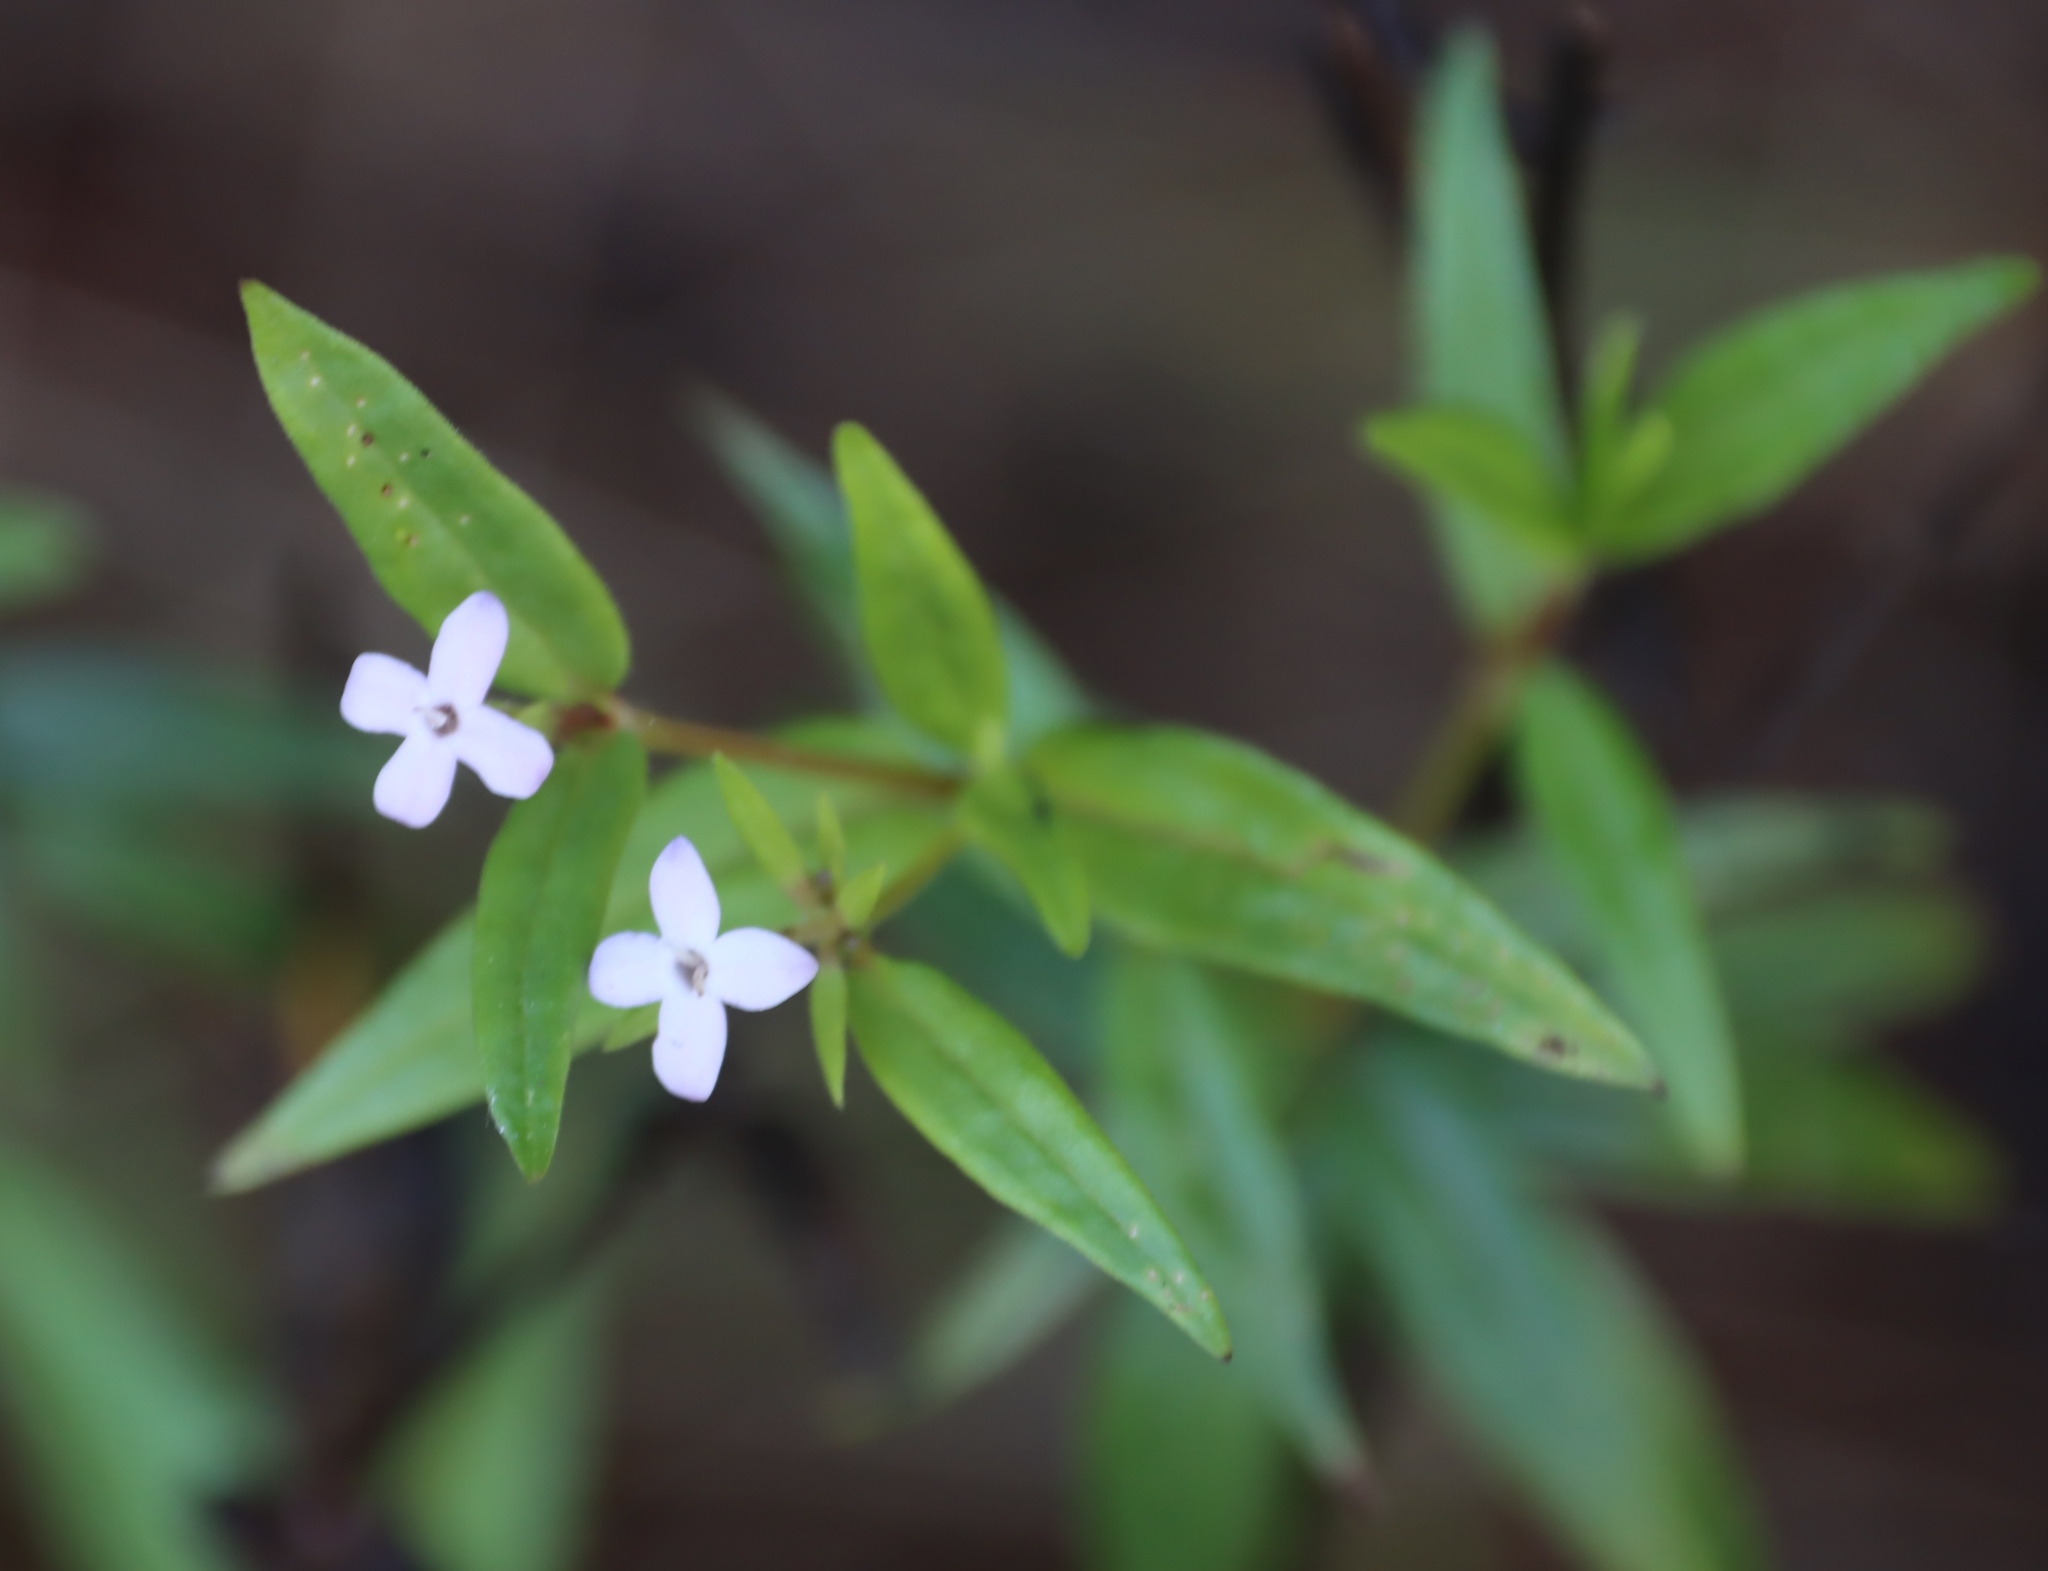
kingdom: Plantae
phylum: Tracheophyta
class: Magnoliopsida
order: Gentianales
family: Rubiaceae
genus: Conostomium
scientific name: Conostomium natalense
